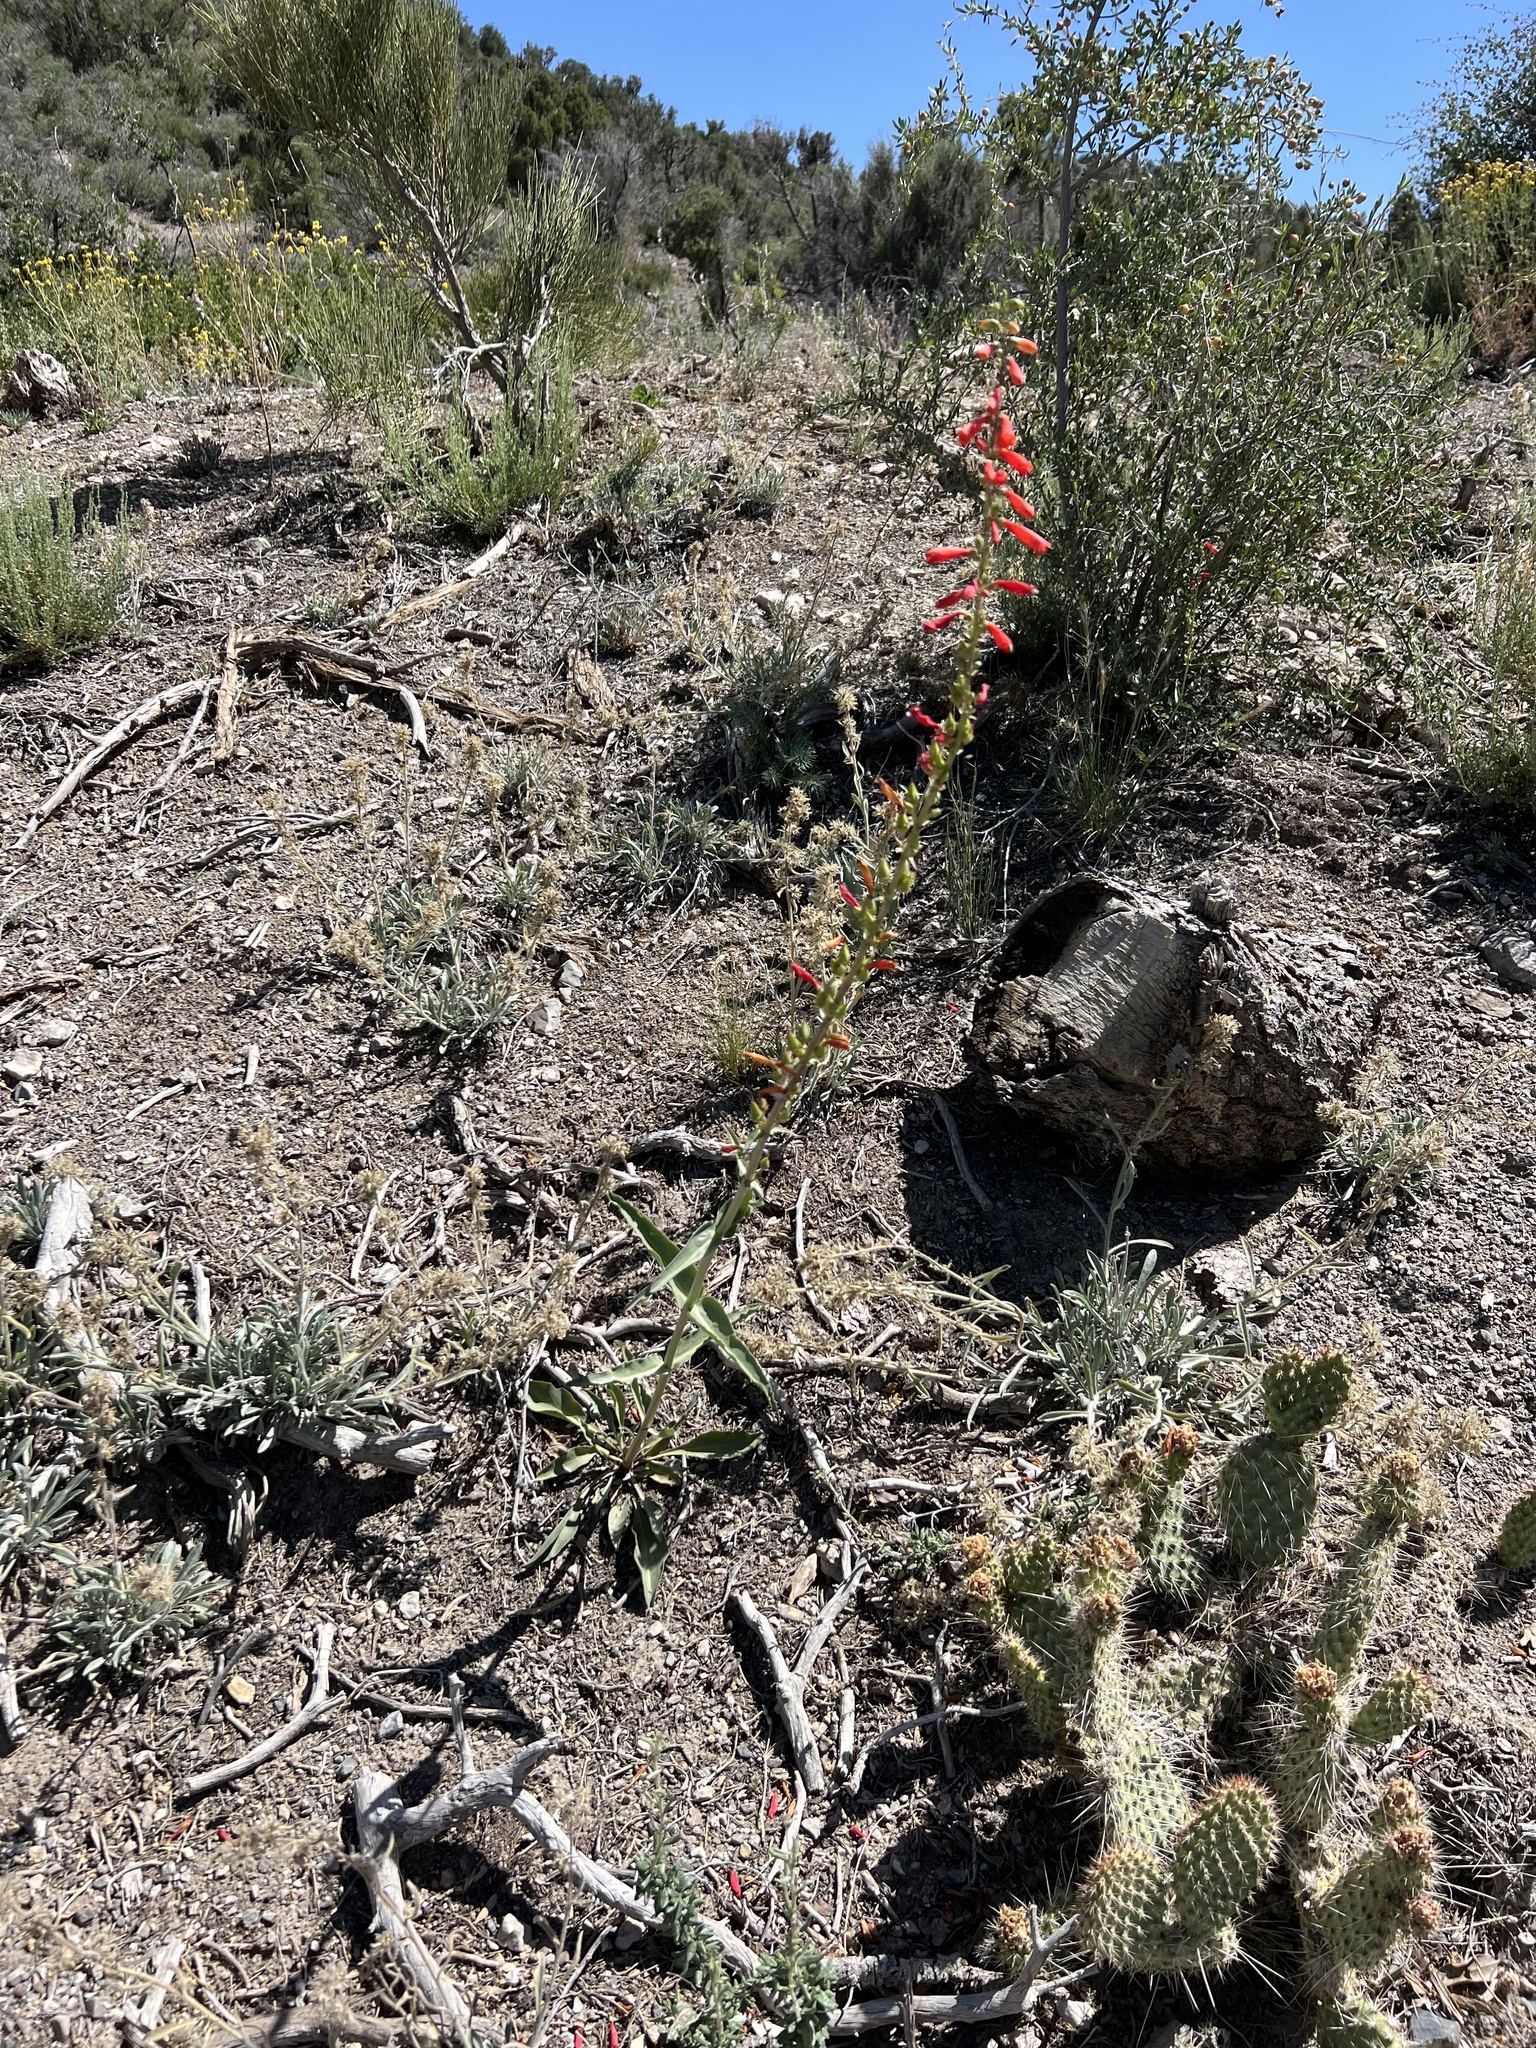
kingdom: Plantae
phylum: Tracheophyta
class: Magnoliopsida
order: Lamiales
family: Plantaginaceae
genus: Penstemon
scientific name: Penstemon eatonii
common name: Eaton's penstemon
